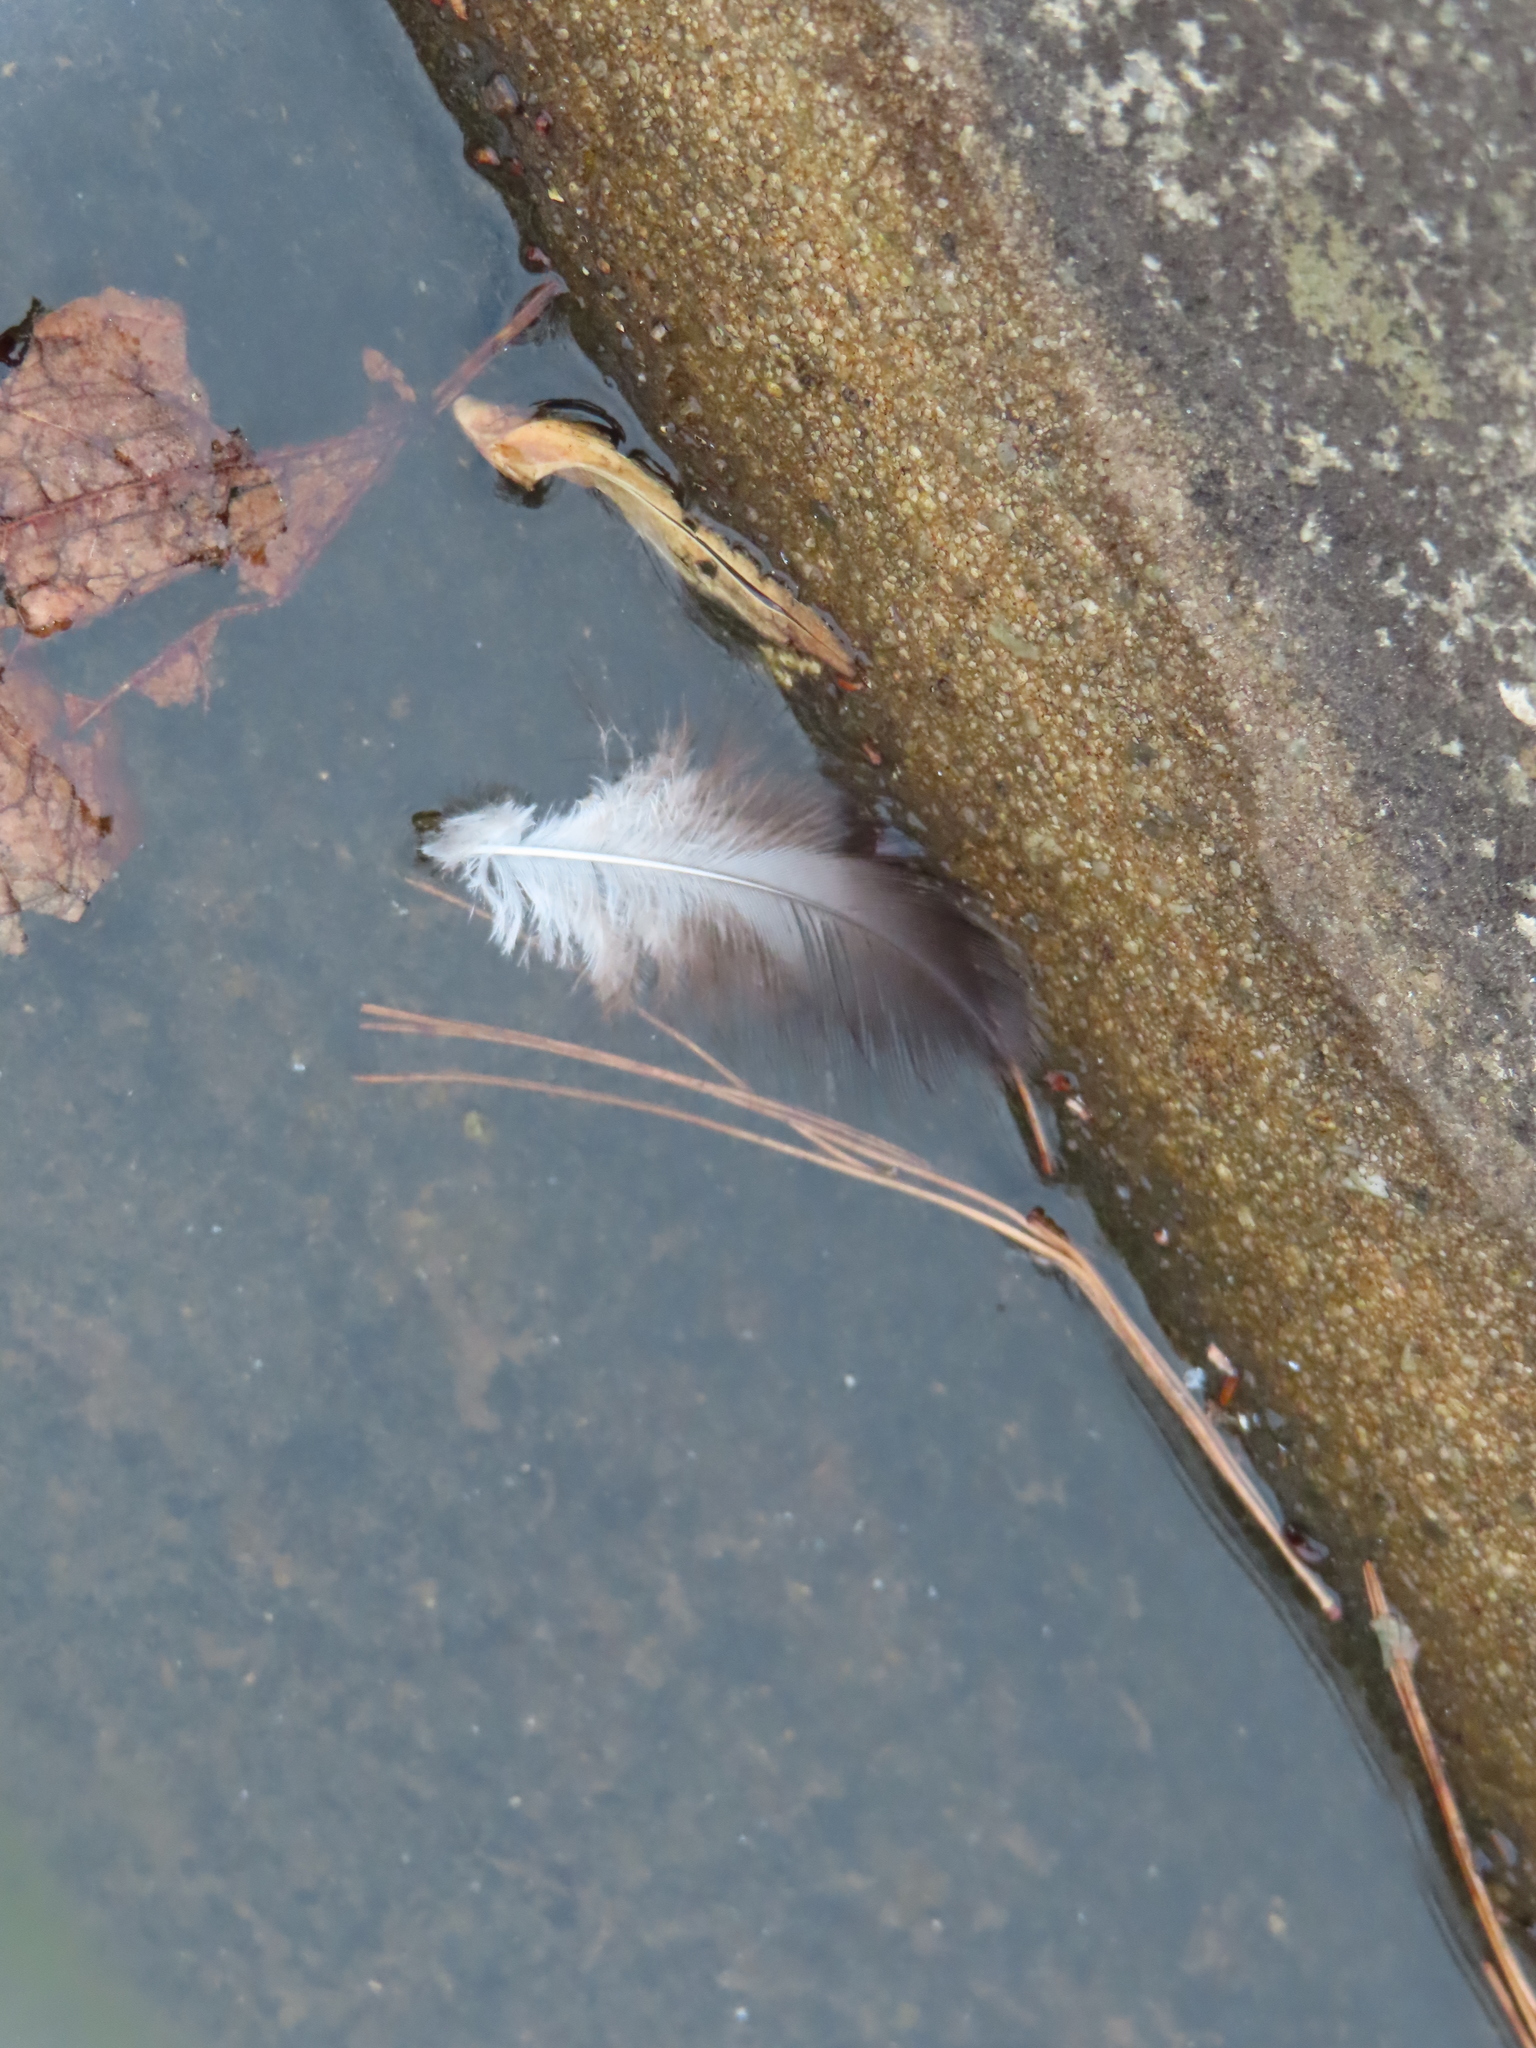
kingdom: Animalia
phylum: Chordata
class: Aves
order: Accipitriformes
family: Cathartidae
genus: Cathartes
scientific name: Cathartes aura
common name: Turkey vulture
